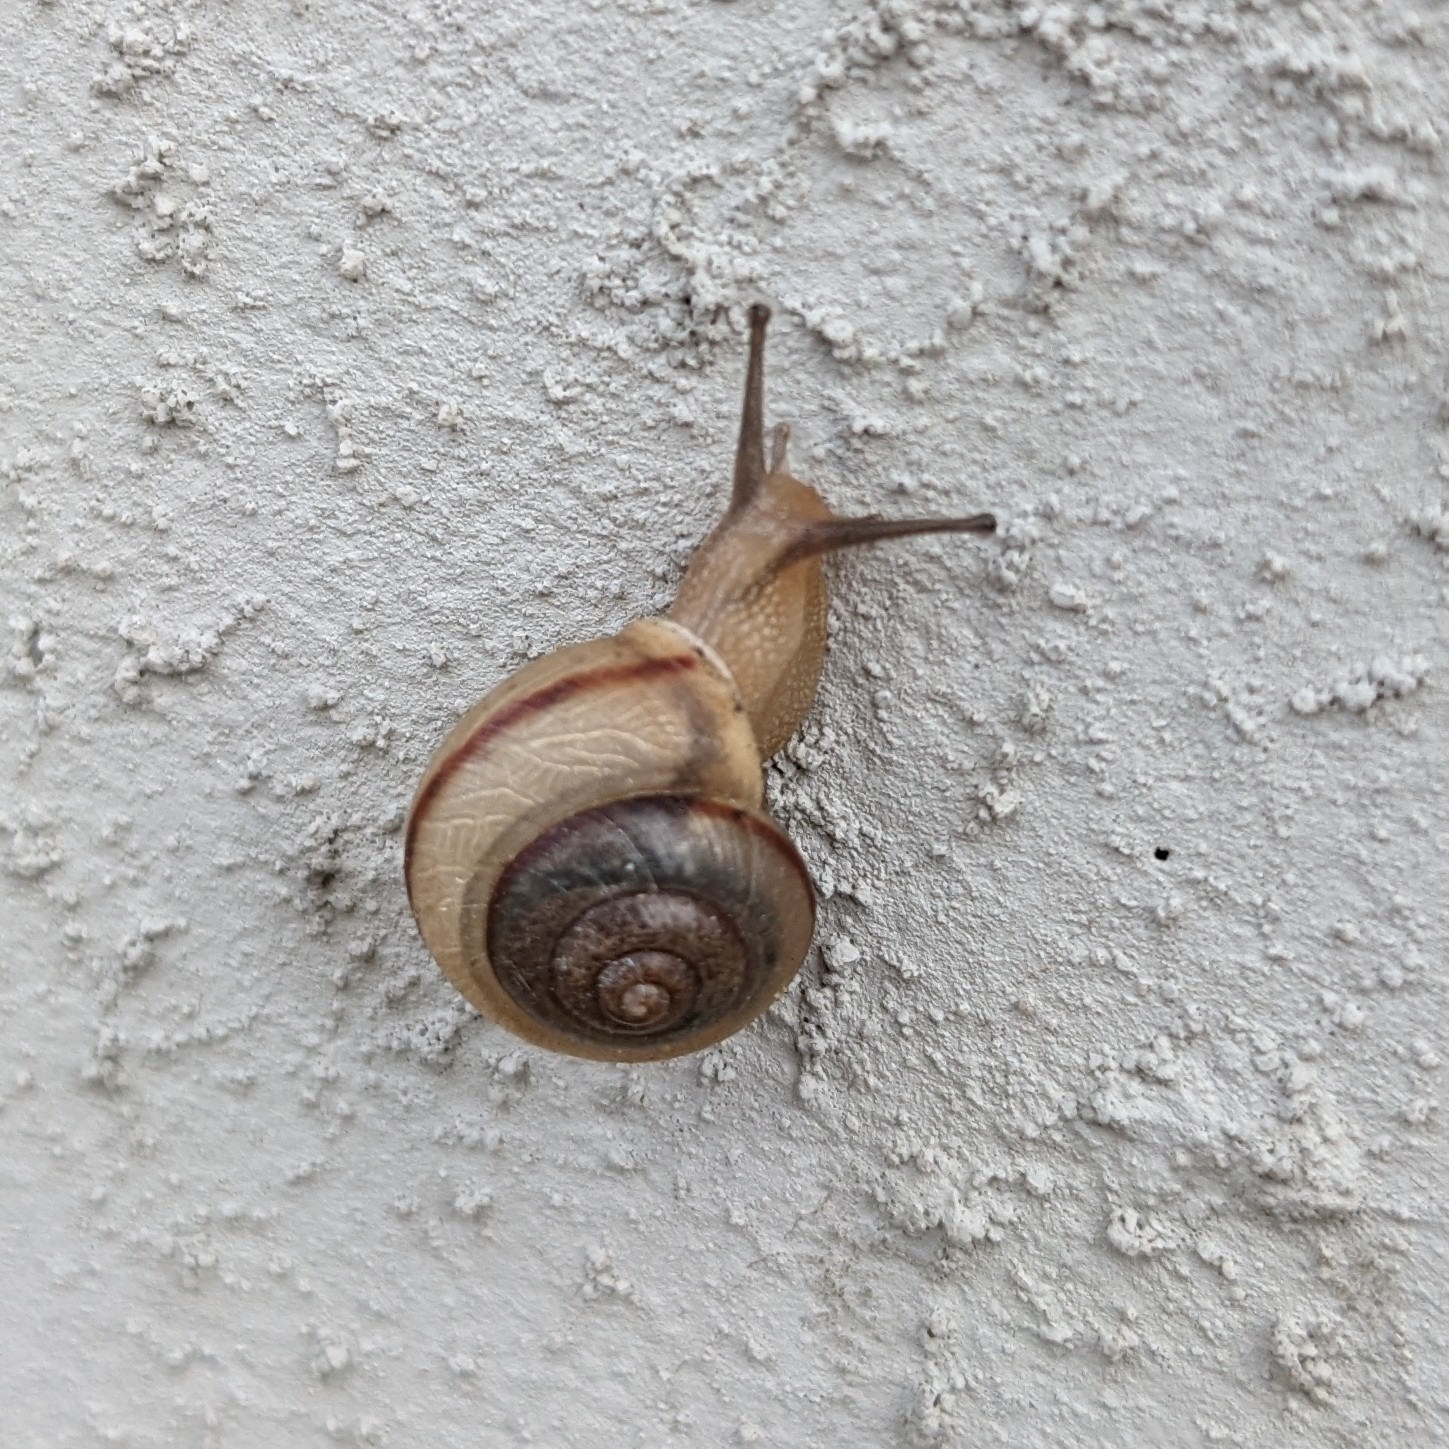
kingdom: Animalia
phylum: Mollusca
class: Gastropoda
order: Stylommatophora
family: Camaenidae
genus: Bradybaena
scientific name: Bradybaena similaris
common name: Asian trampsnail
